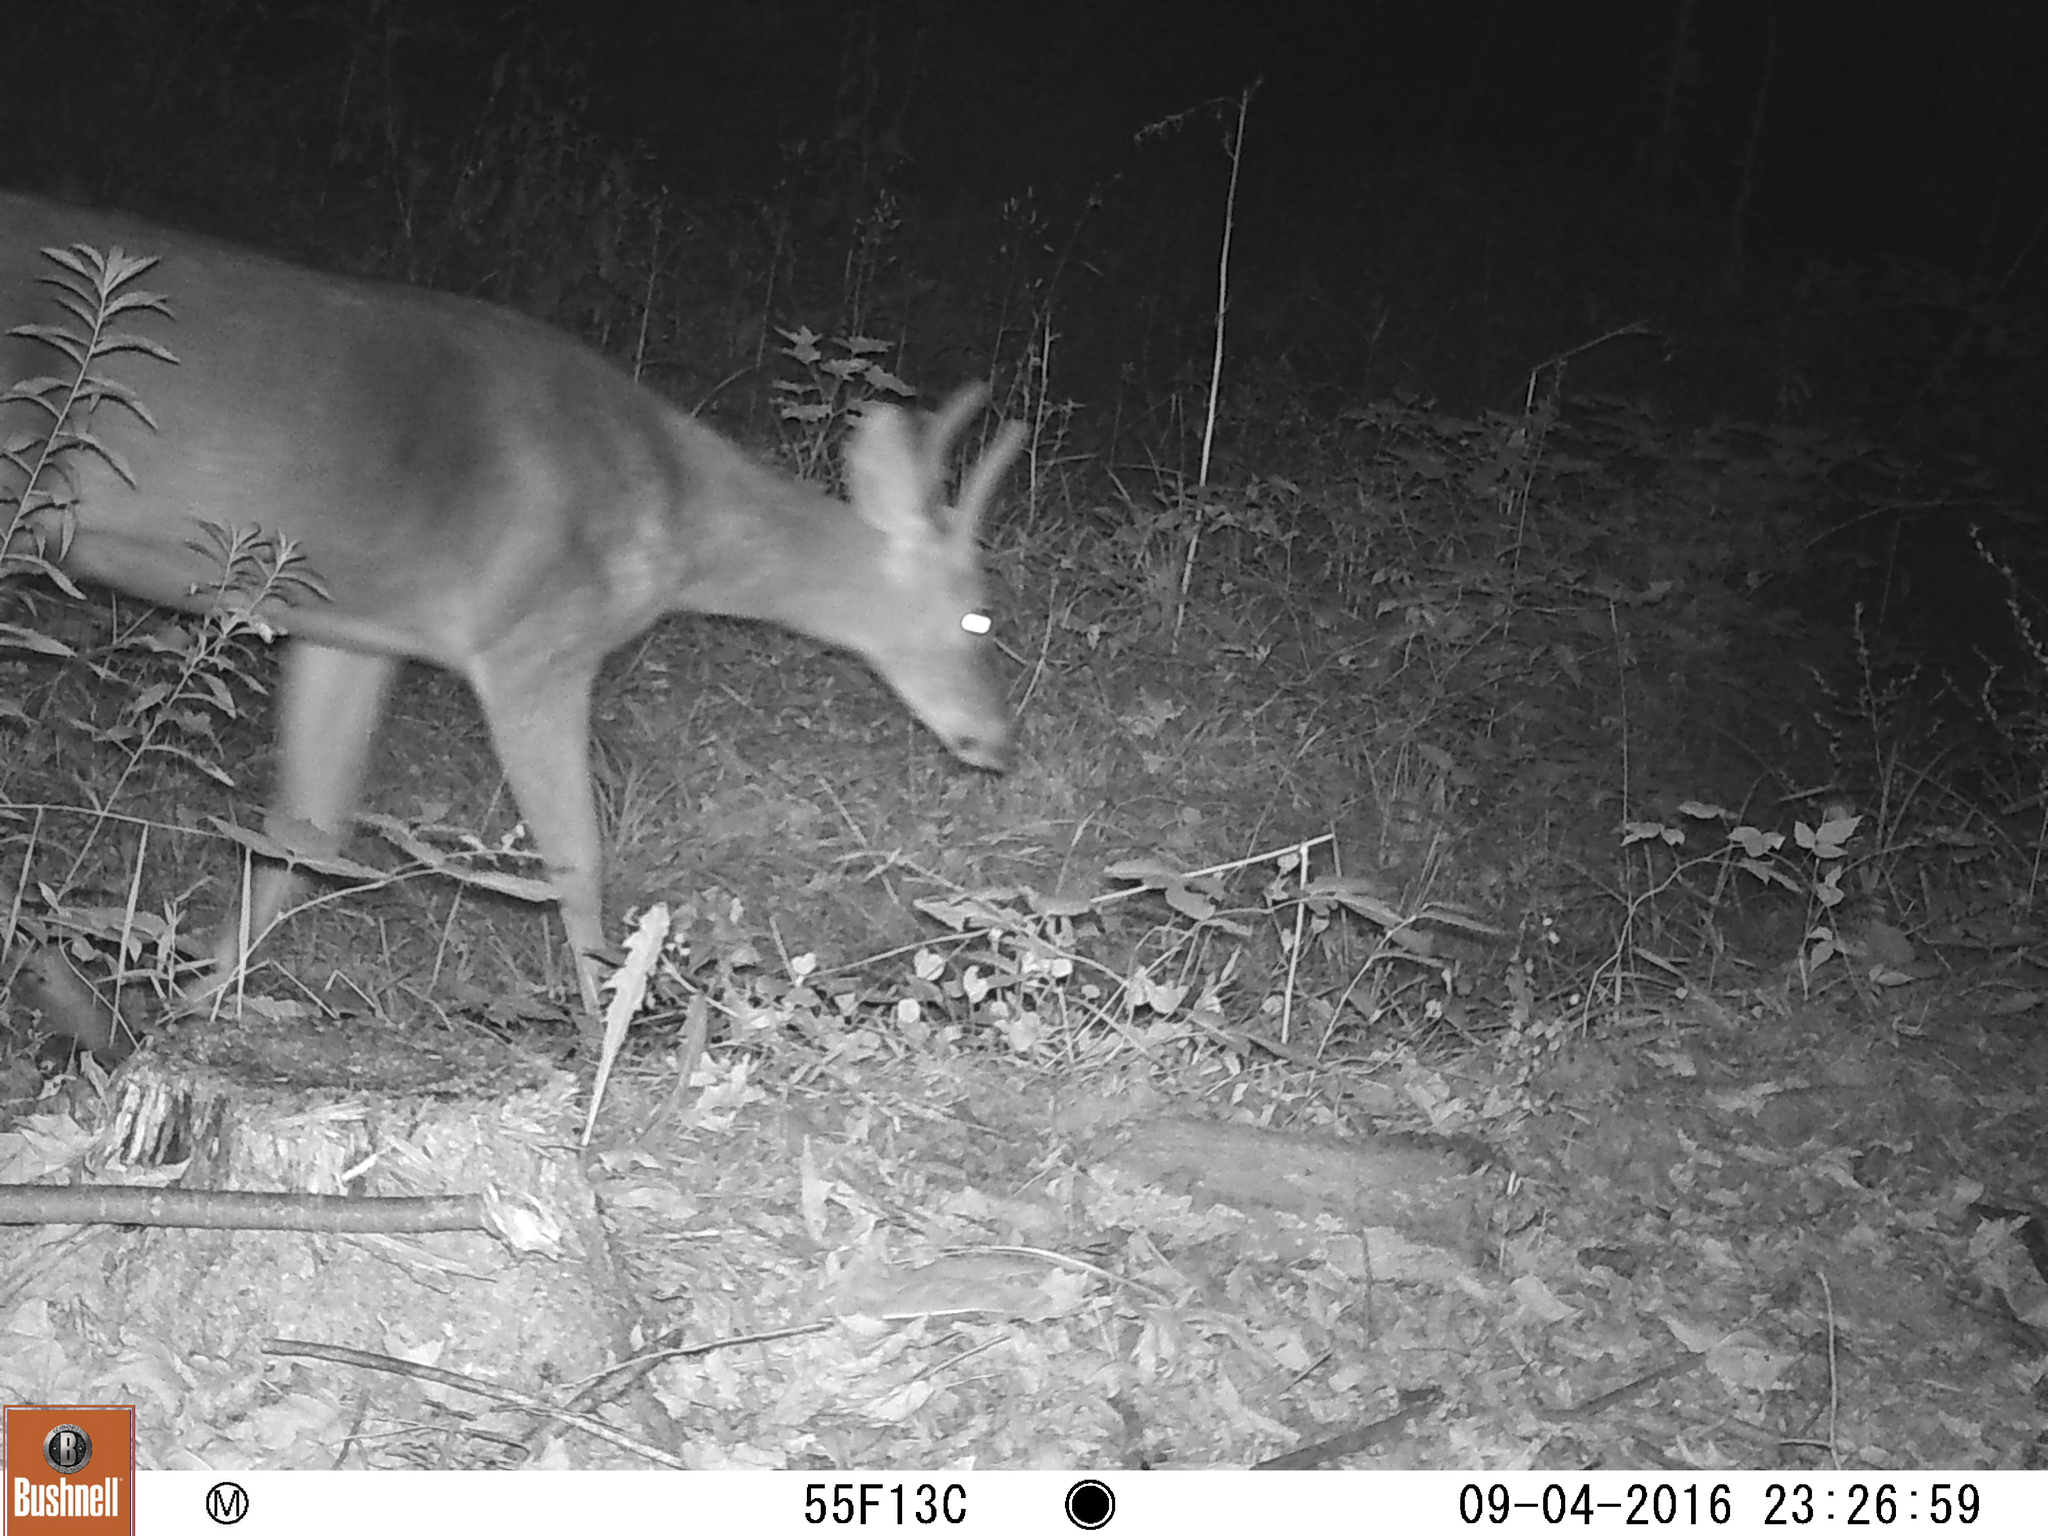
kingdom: Animalia
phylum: Chordata
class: Mammalia
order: Artiodactyla
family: Cervidae
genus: Odocoileus
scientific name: Odocoileus virginianus
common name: White-tailed deer
